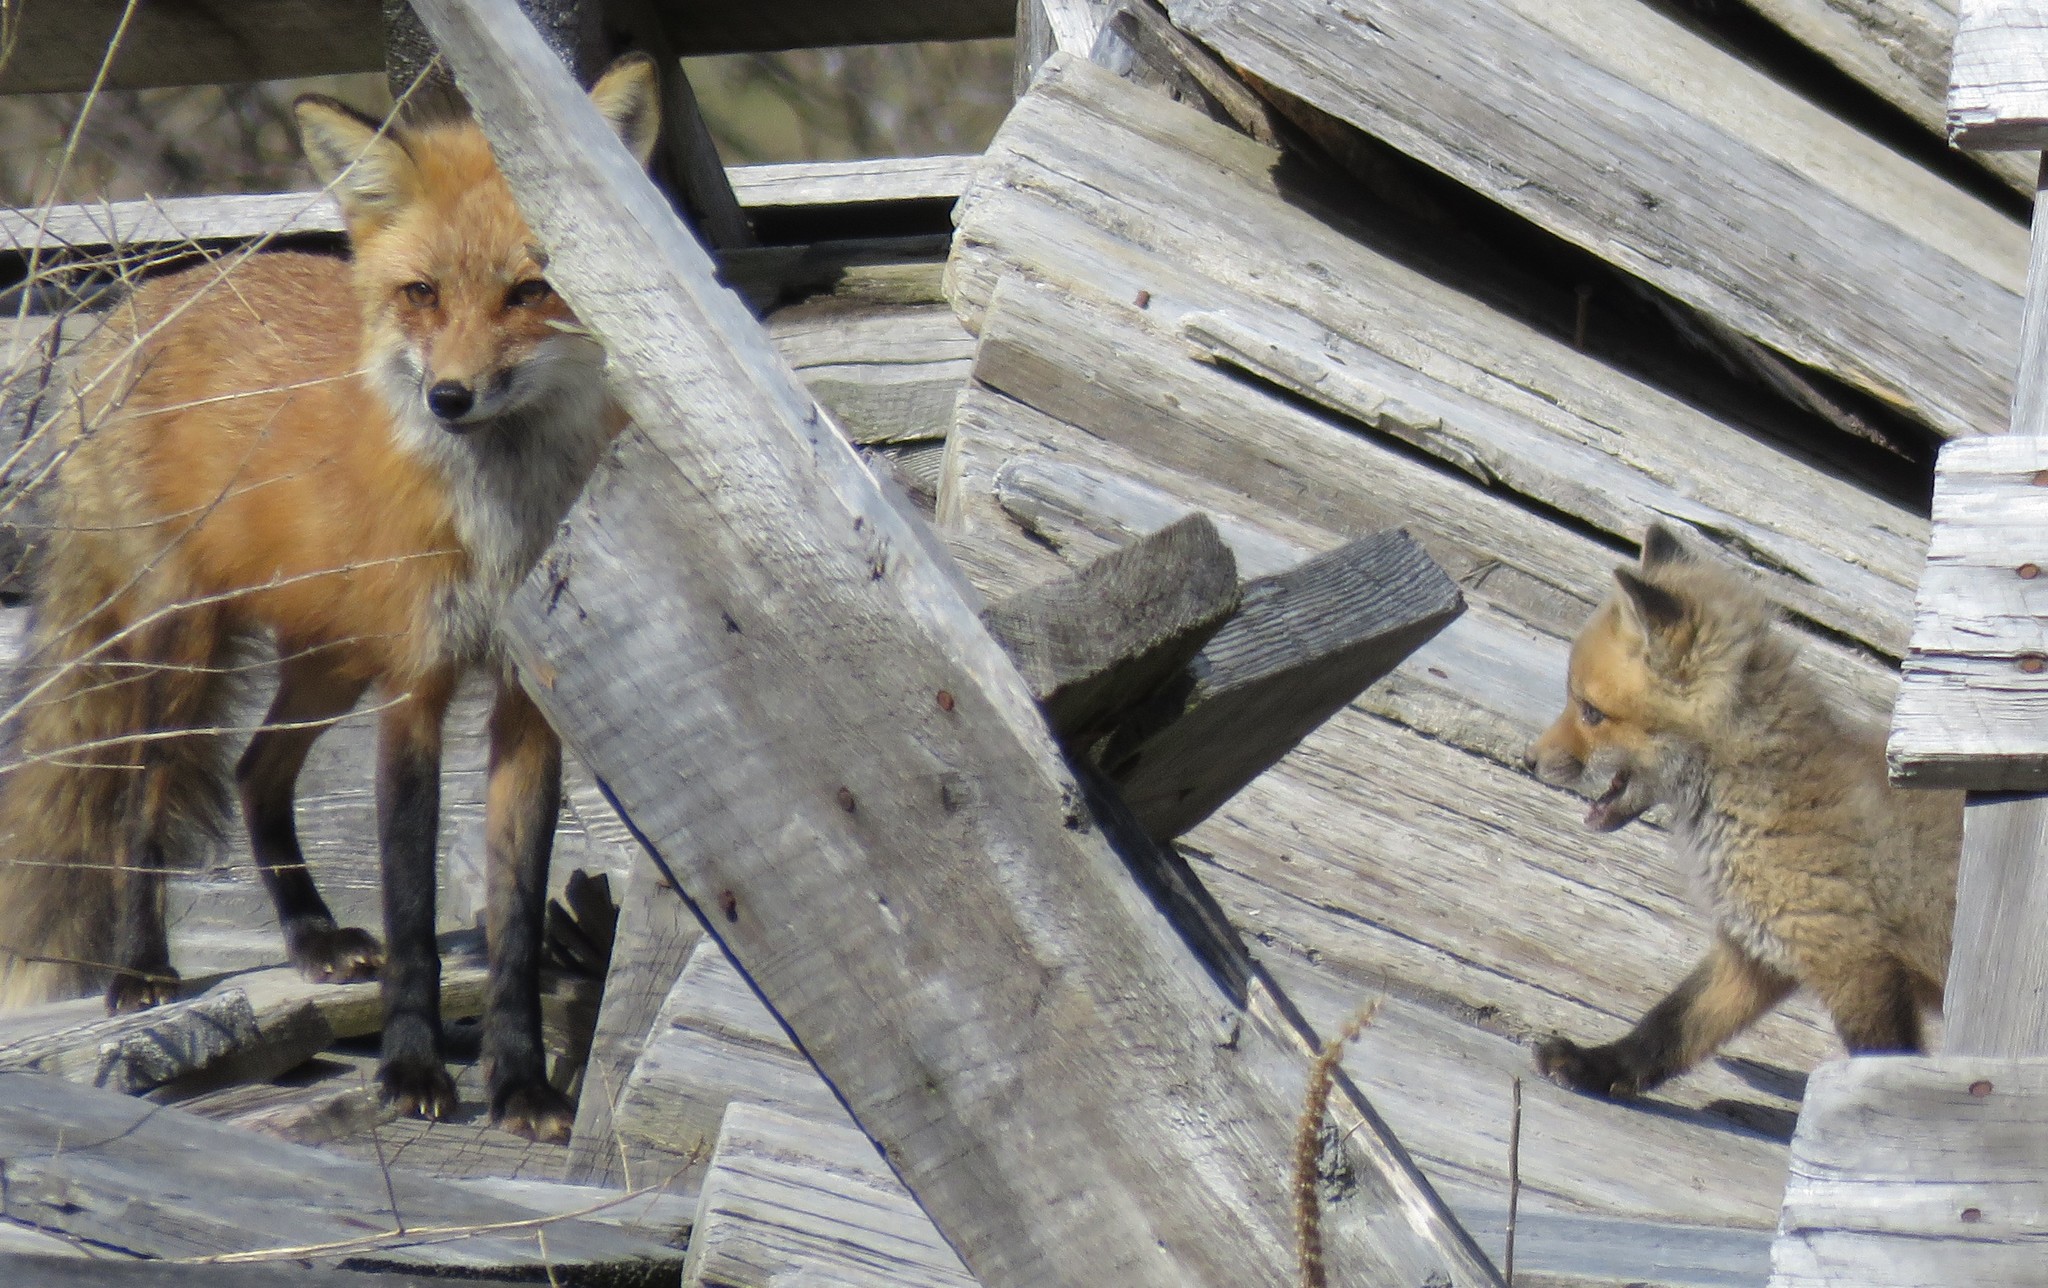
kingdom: Animalia
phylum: Chordata
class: Mammalia
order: Carnivora
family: Canidae
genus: Vulpes
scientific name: Vulpes vulpes
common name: Red fox
